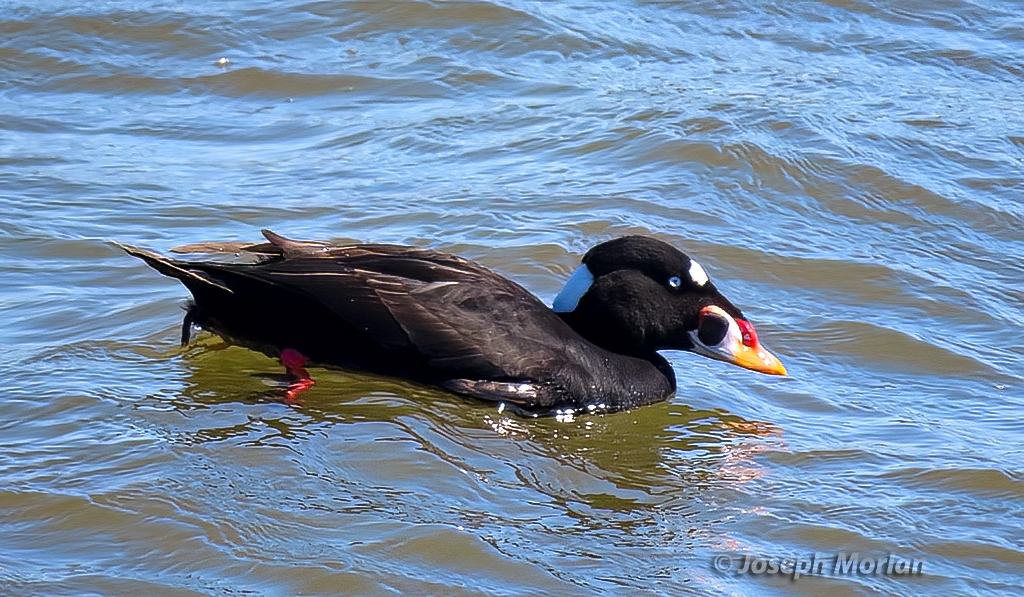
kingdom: Animalia
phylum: Chordata
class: Aves
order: Anseriformes
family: Anatidae
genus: Melanitta
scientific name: Melanitta perspicillata
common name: Surf scoter
